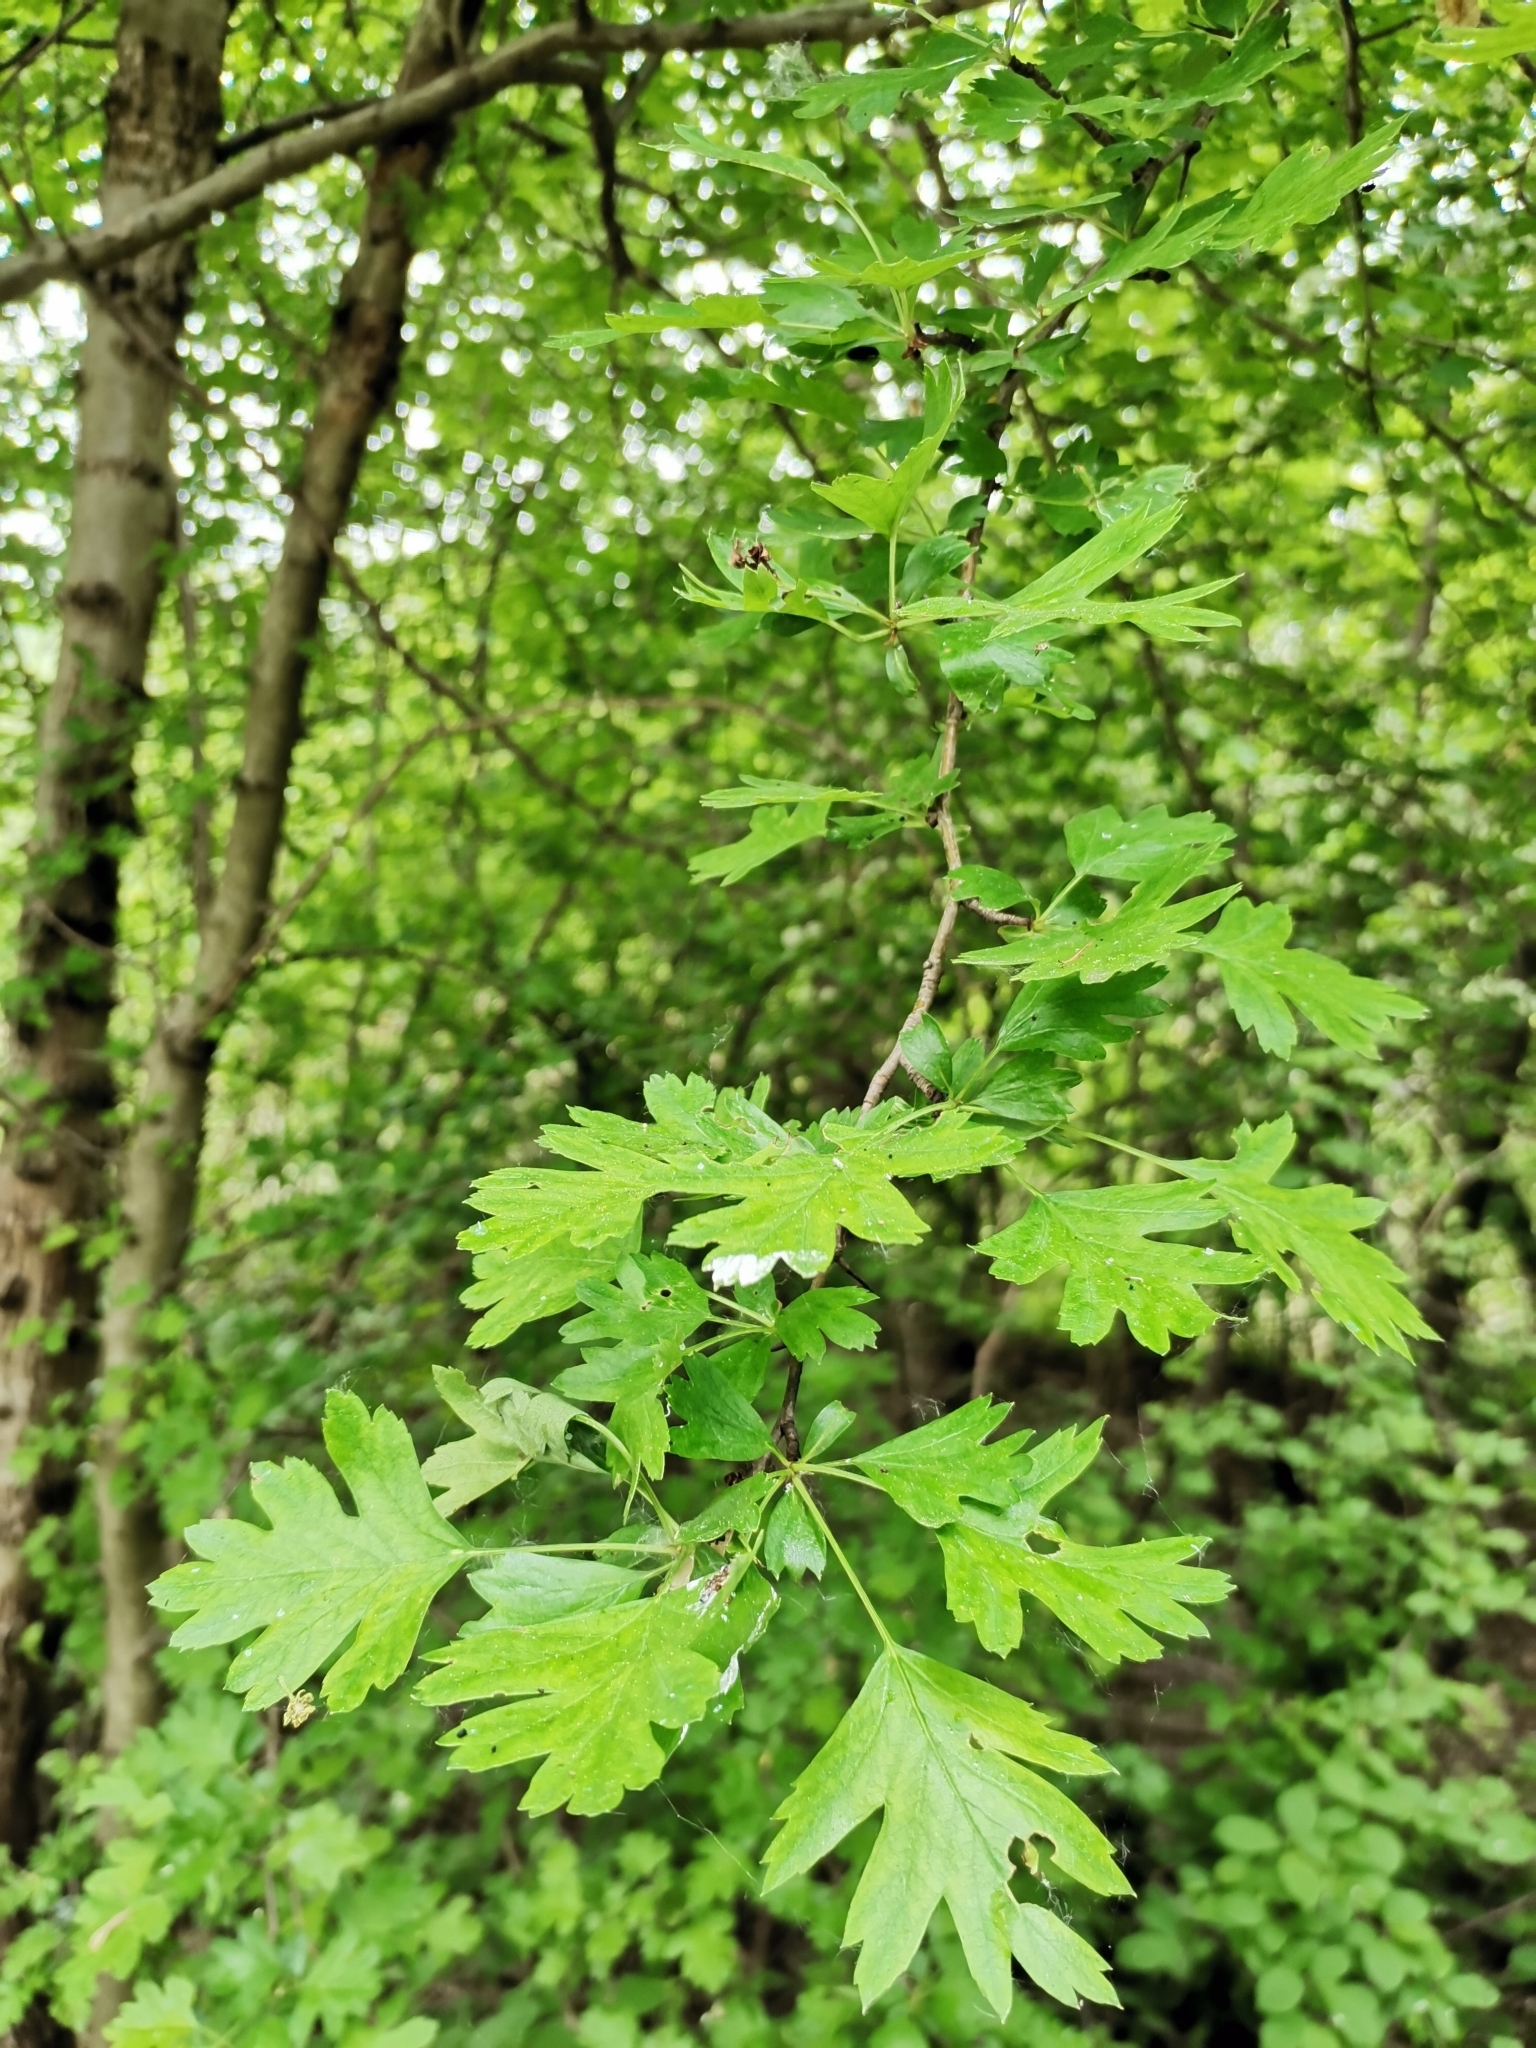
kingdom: Plantae
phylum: Tracheophyta
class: Magnoliopsida
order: Rosales
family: Rosaceae
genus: Crataegus
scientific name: Crataegus monogyna
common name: Hawthorn
